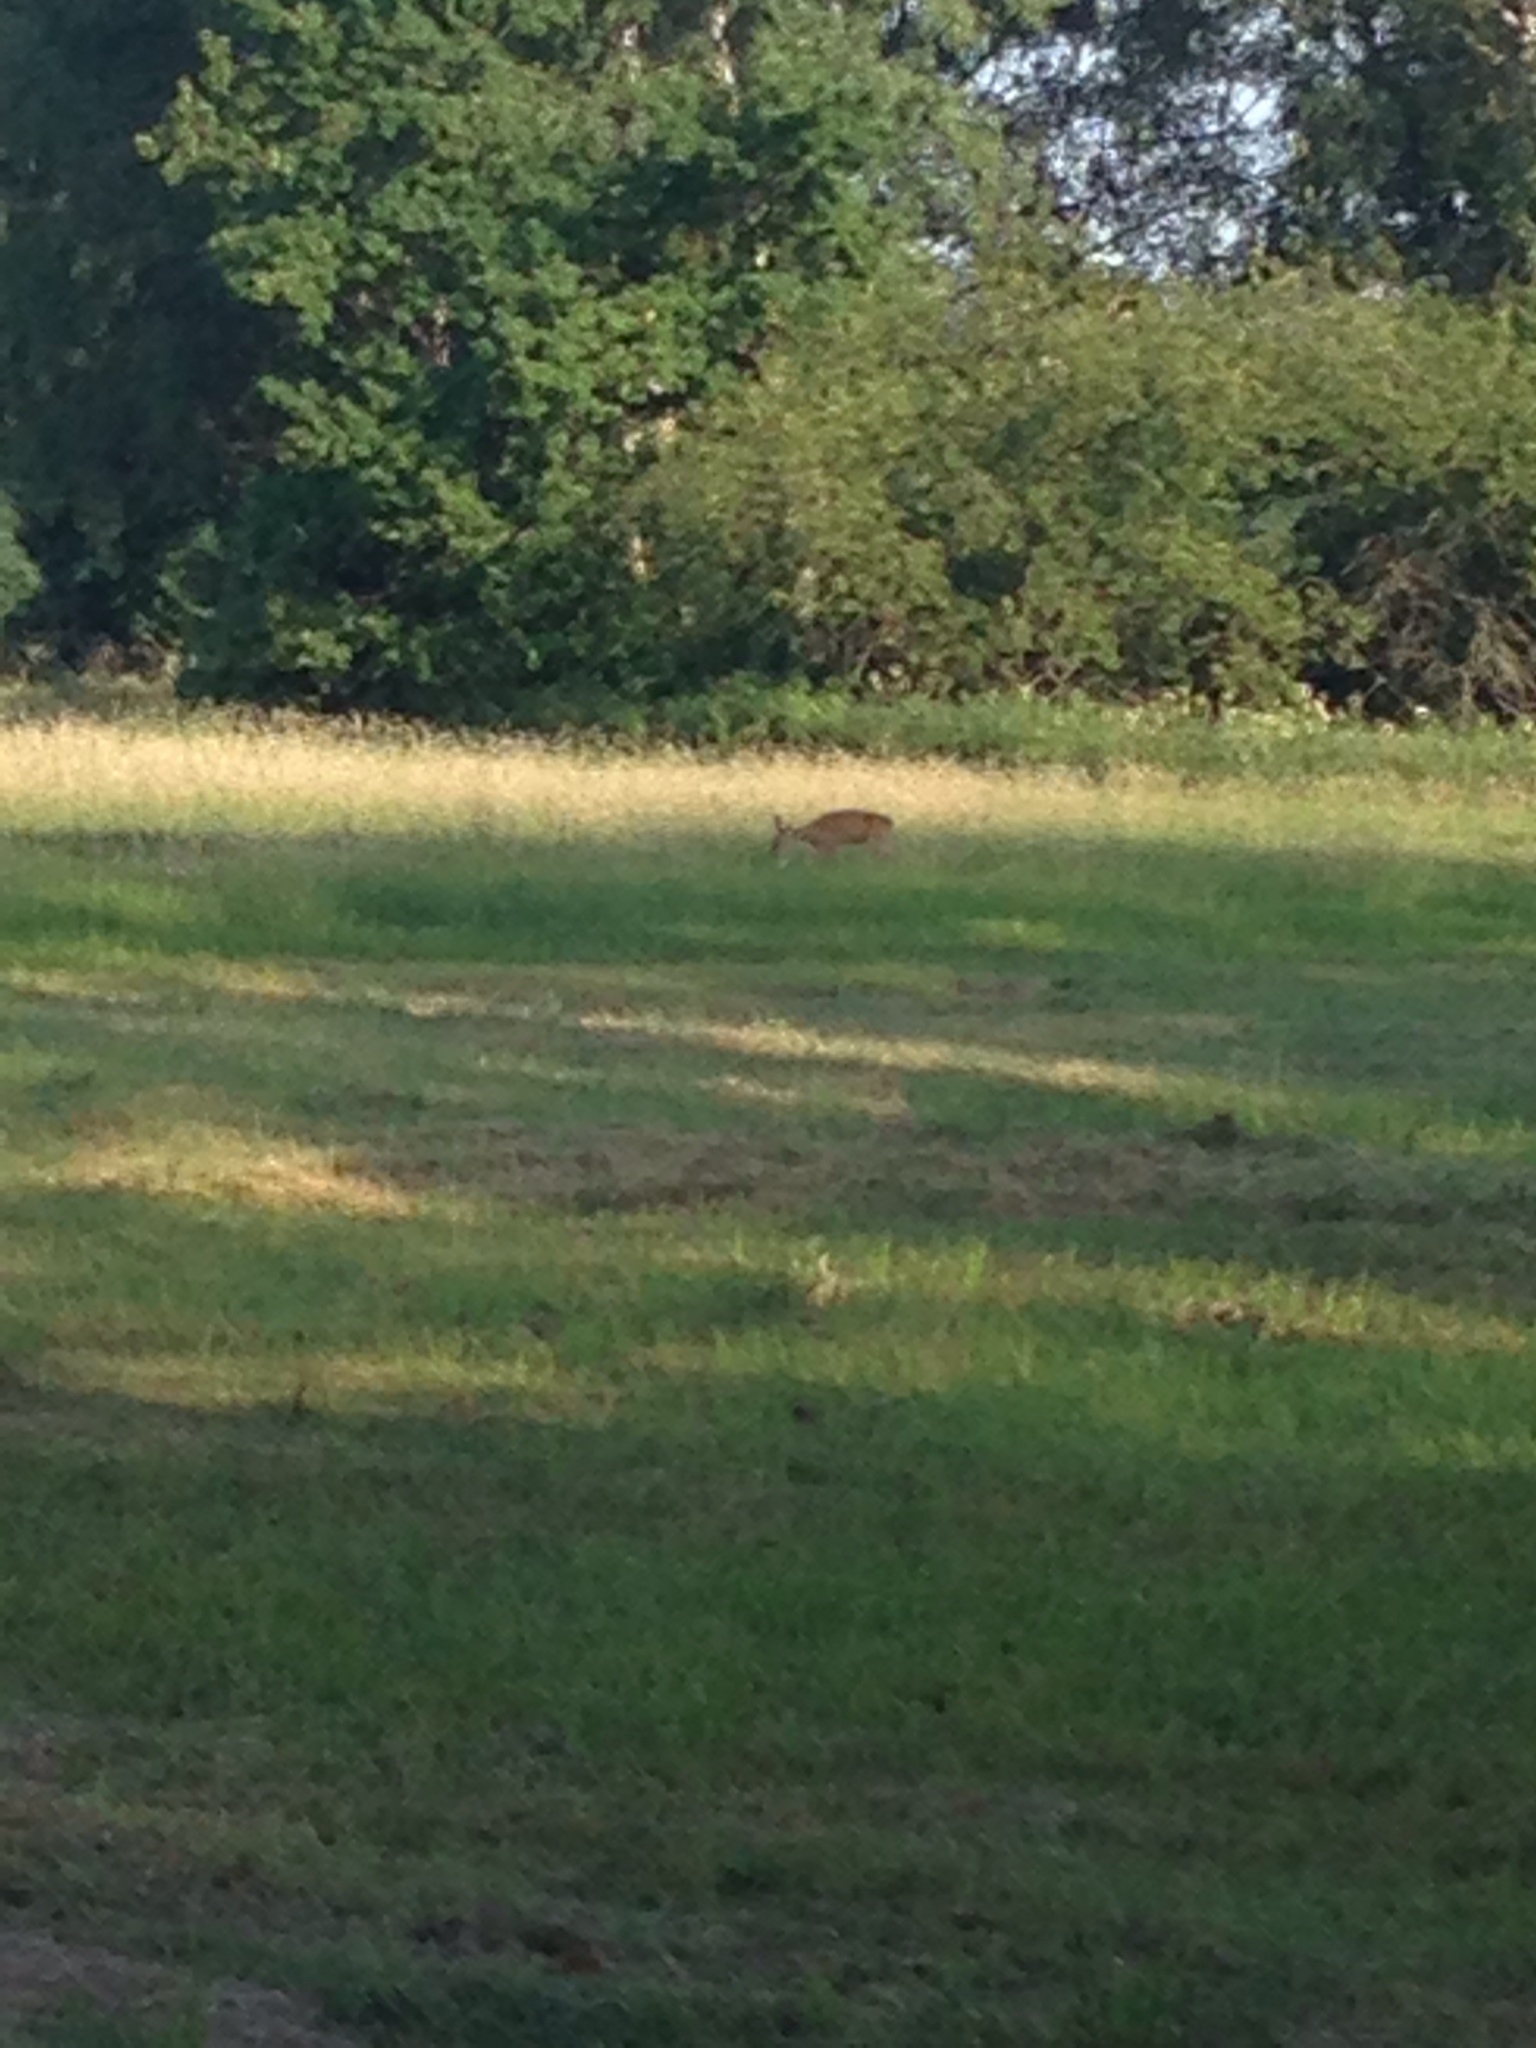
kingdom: Animalia
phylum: Chordata
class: Mammalia
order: Artiodactyla
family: Cervidae
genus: Capreolus
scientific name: Capreolus capreolus
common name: Western roe deer
